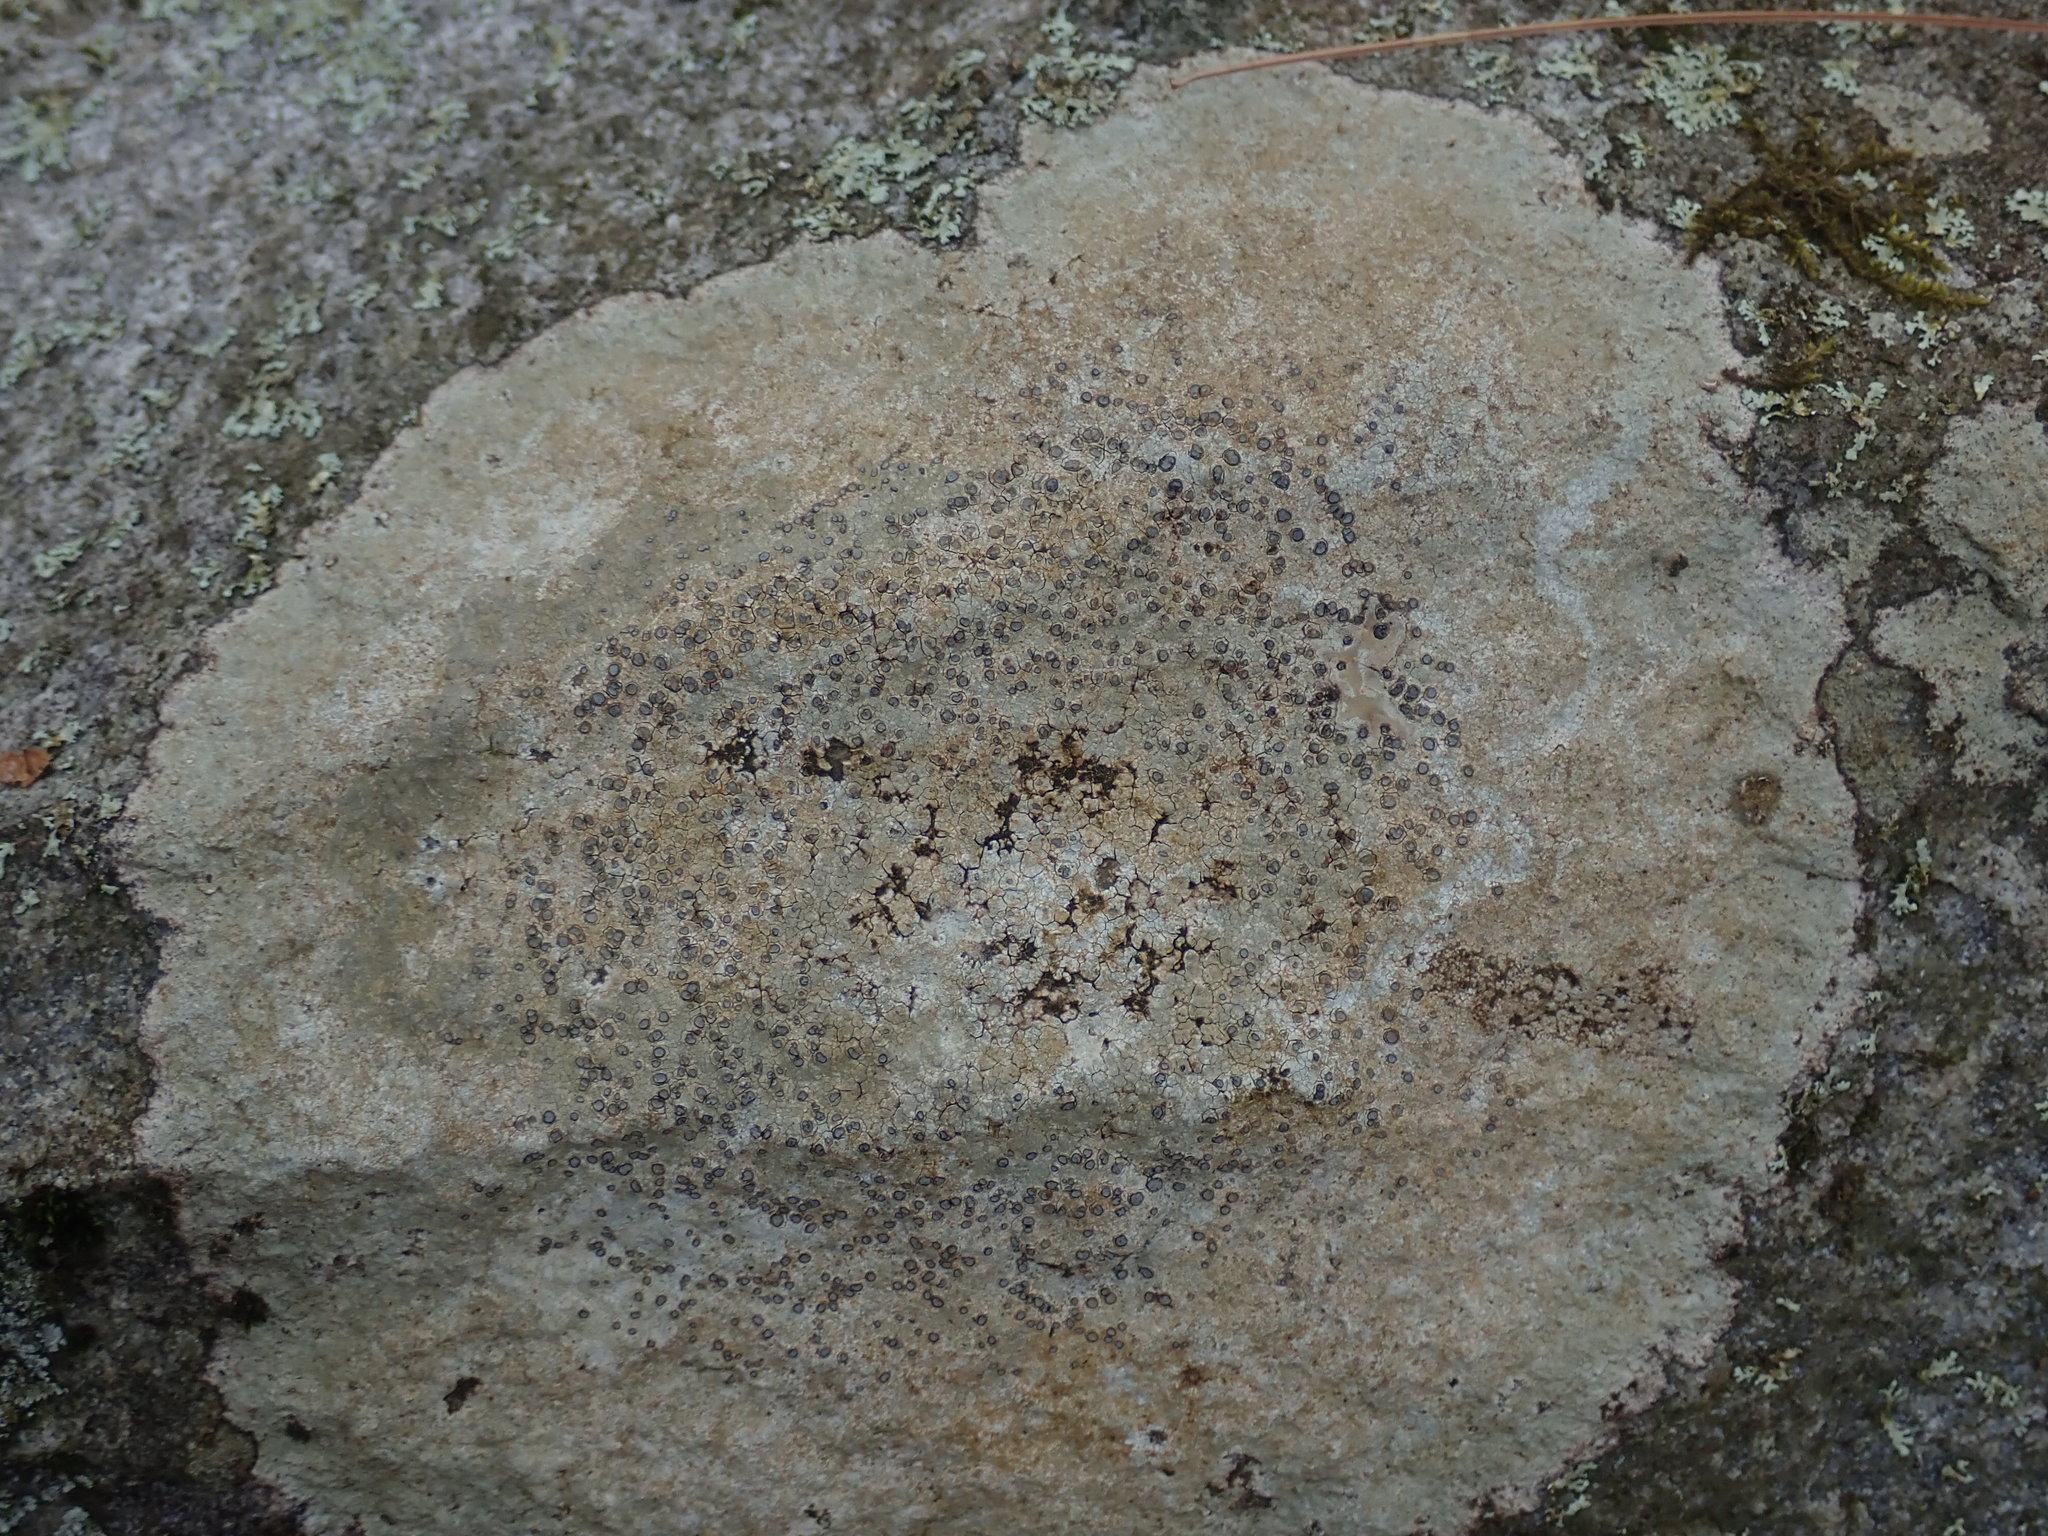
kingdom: Fungi
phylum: Ascomycota
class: Lecanoromycetes
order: Lecideales
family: Lecideaceae
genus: Porpidia
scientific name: Porpidia albocaerulescens
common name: Smokey-eyed boulder lichen
